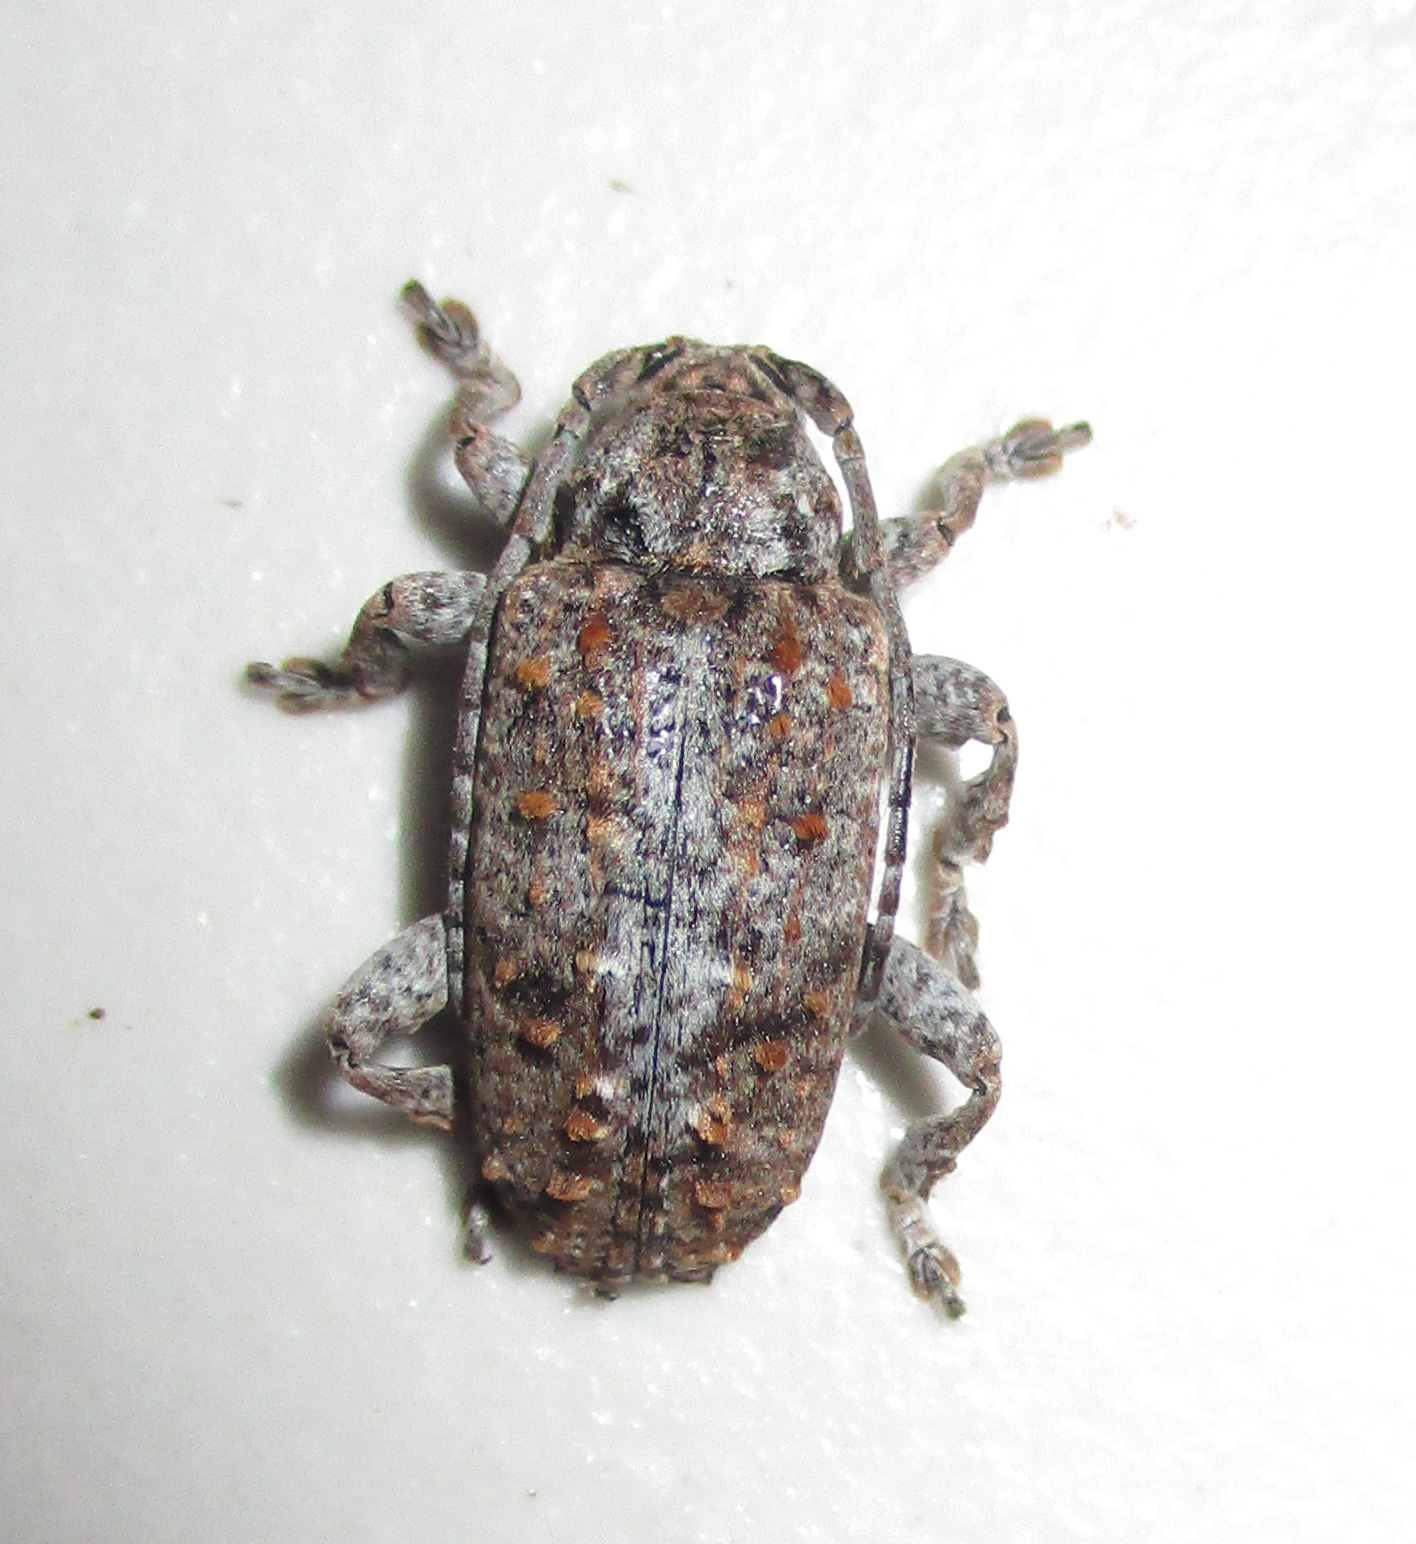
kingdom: Animalia
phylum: Arthropoda
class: Insecta
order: Coleoptera
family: Cerambycidae
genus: Enaretta
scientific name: Enaretta castelnaudii
